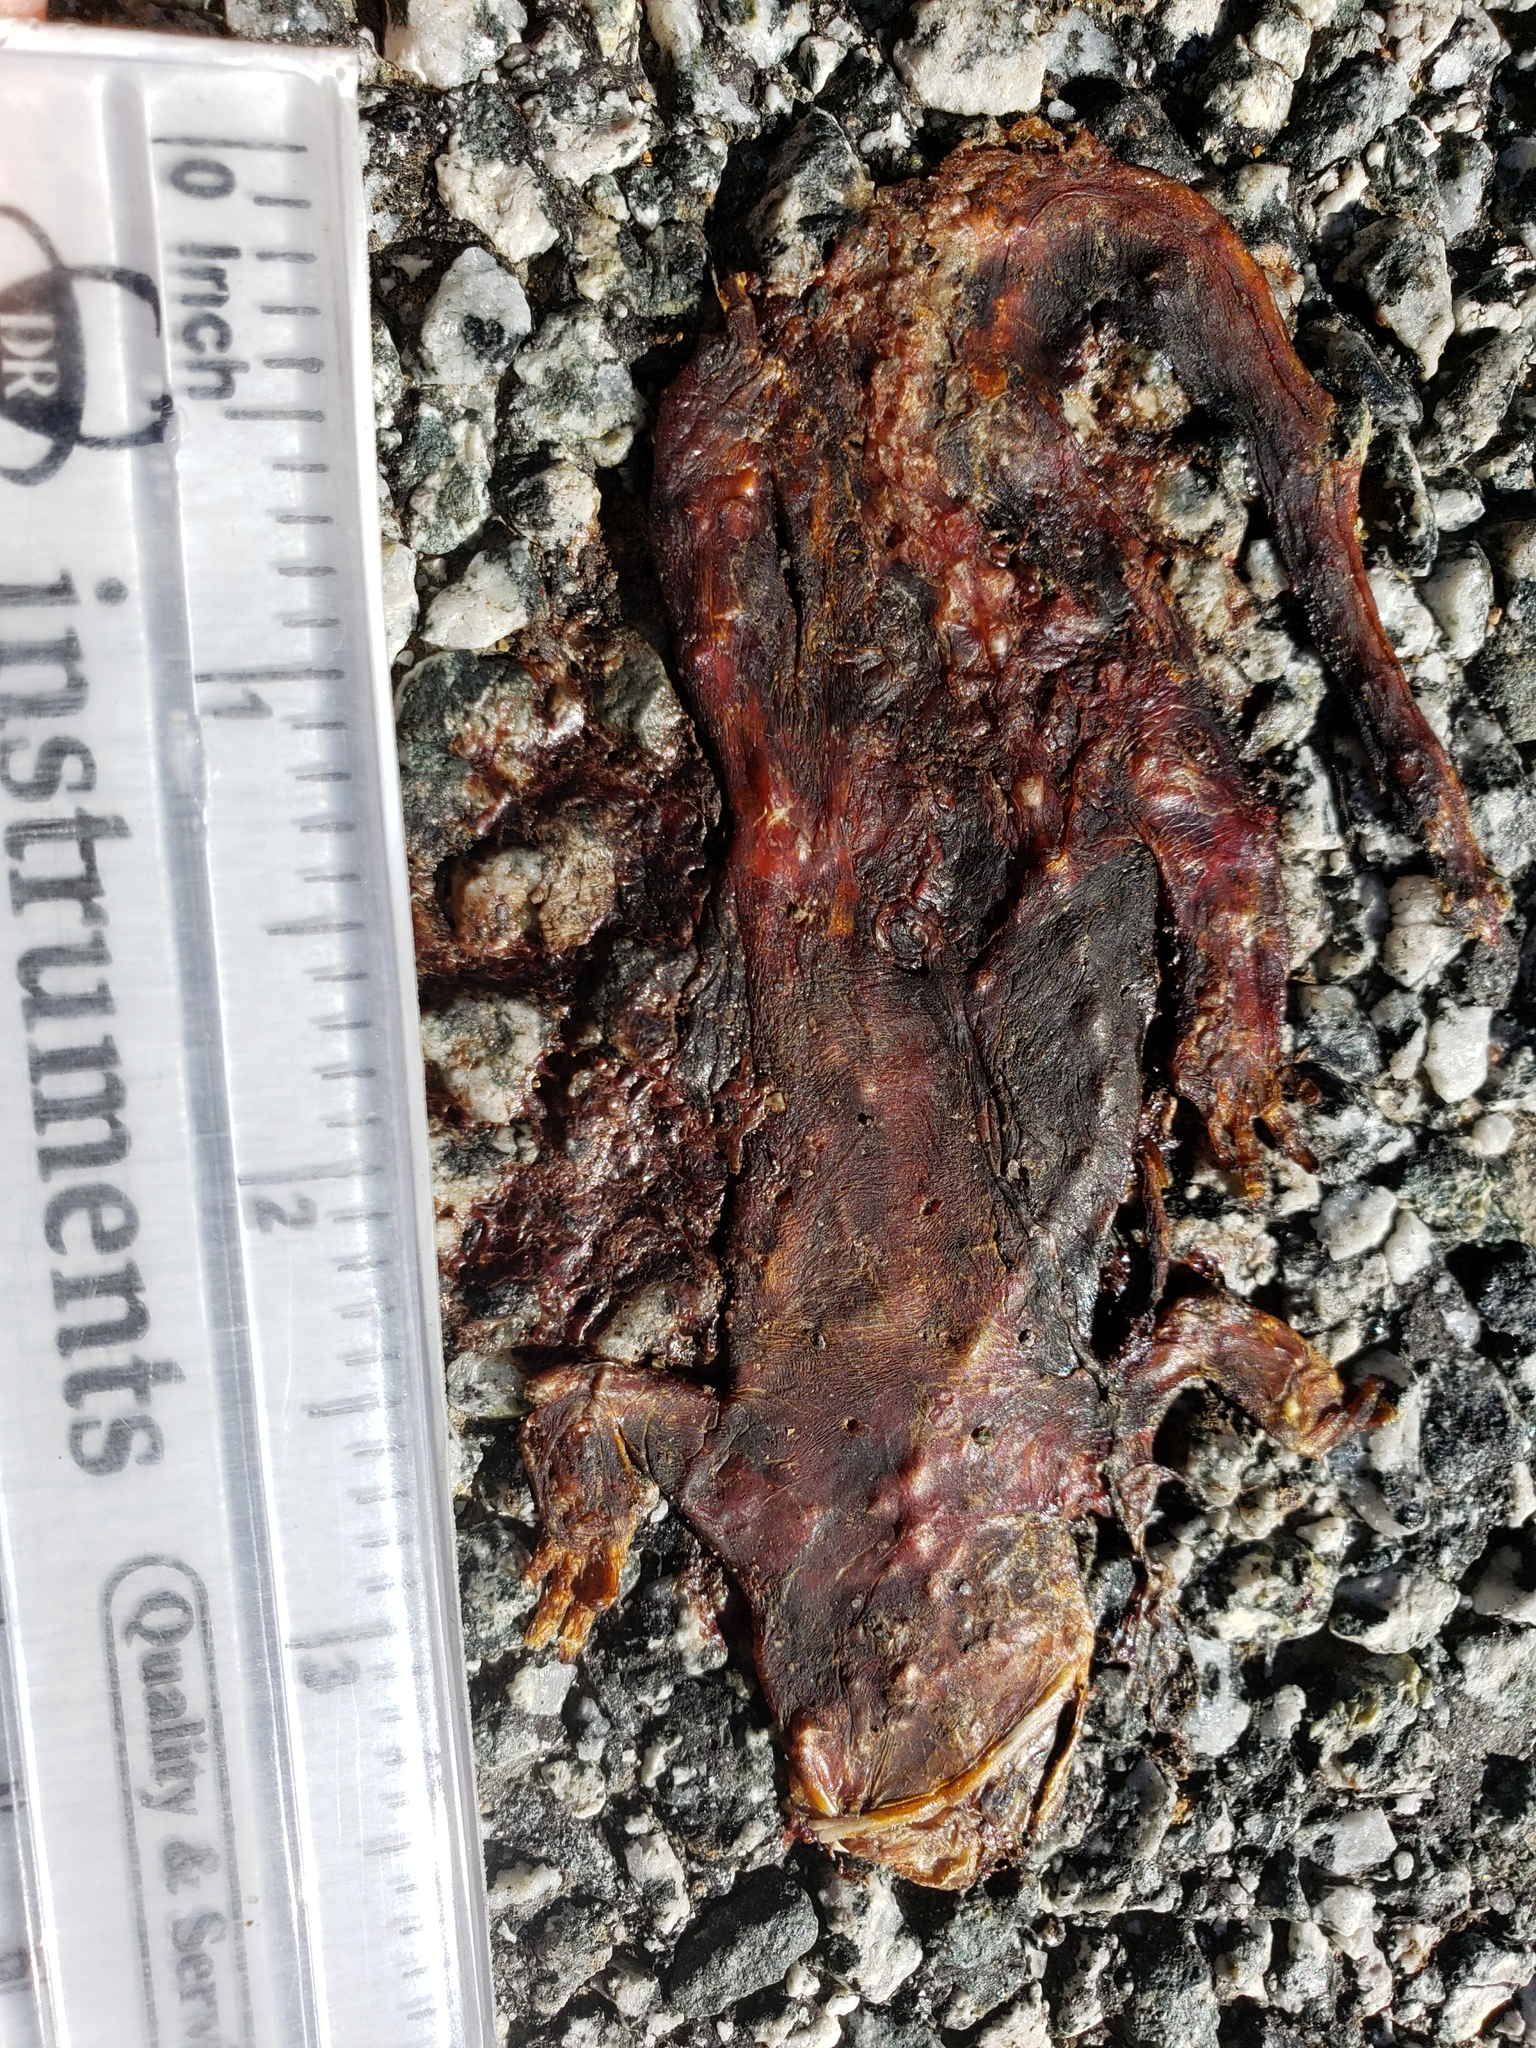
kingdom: Animalia
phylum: Chordata
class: Amphibia
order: Caudata
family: Salamandridae
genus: Taricha
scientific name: Taricha
